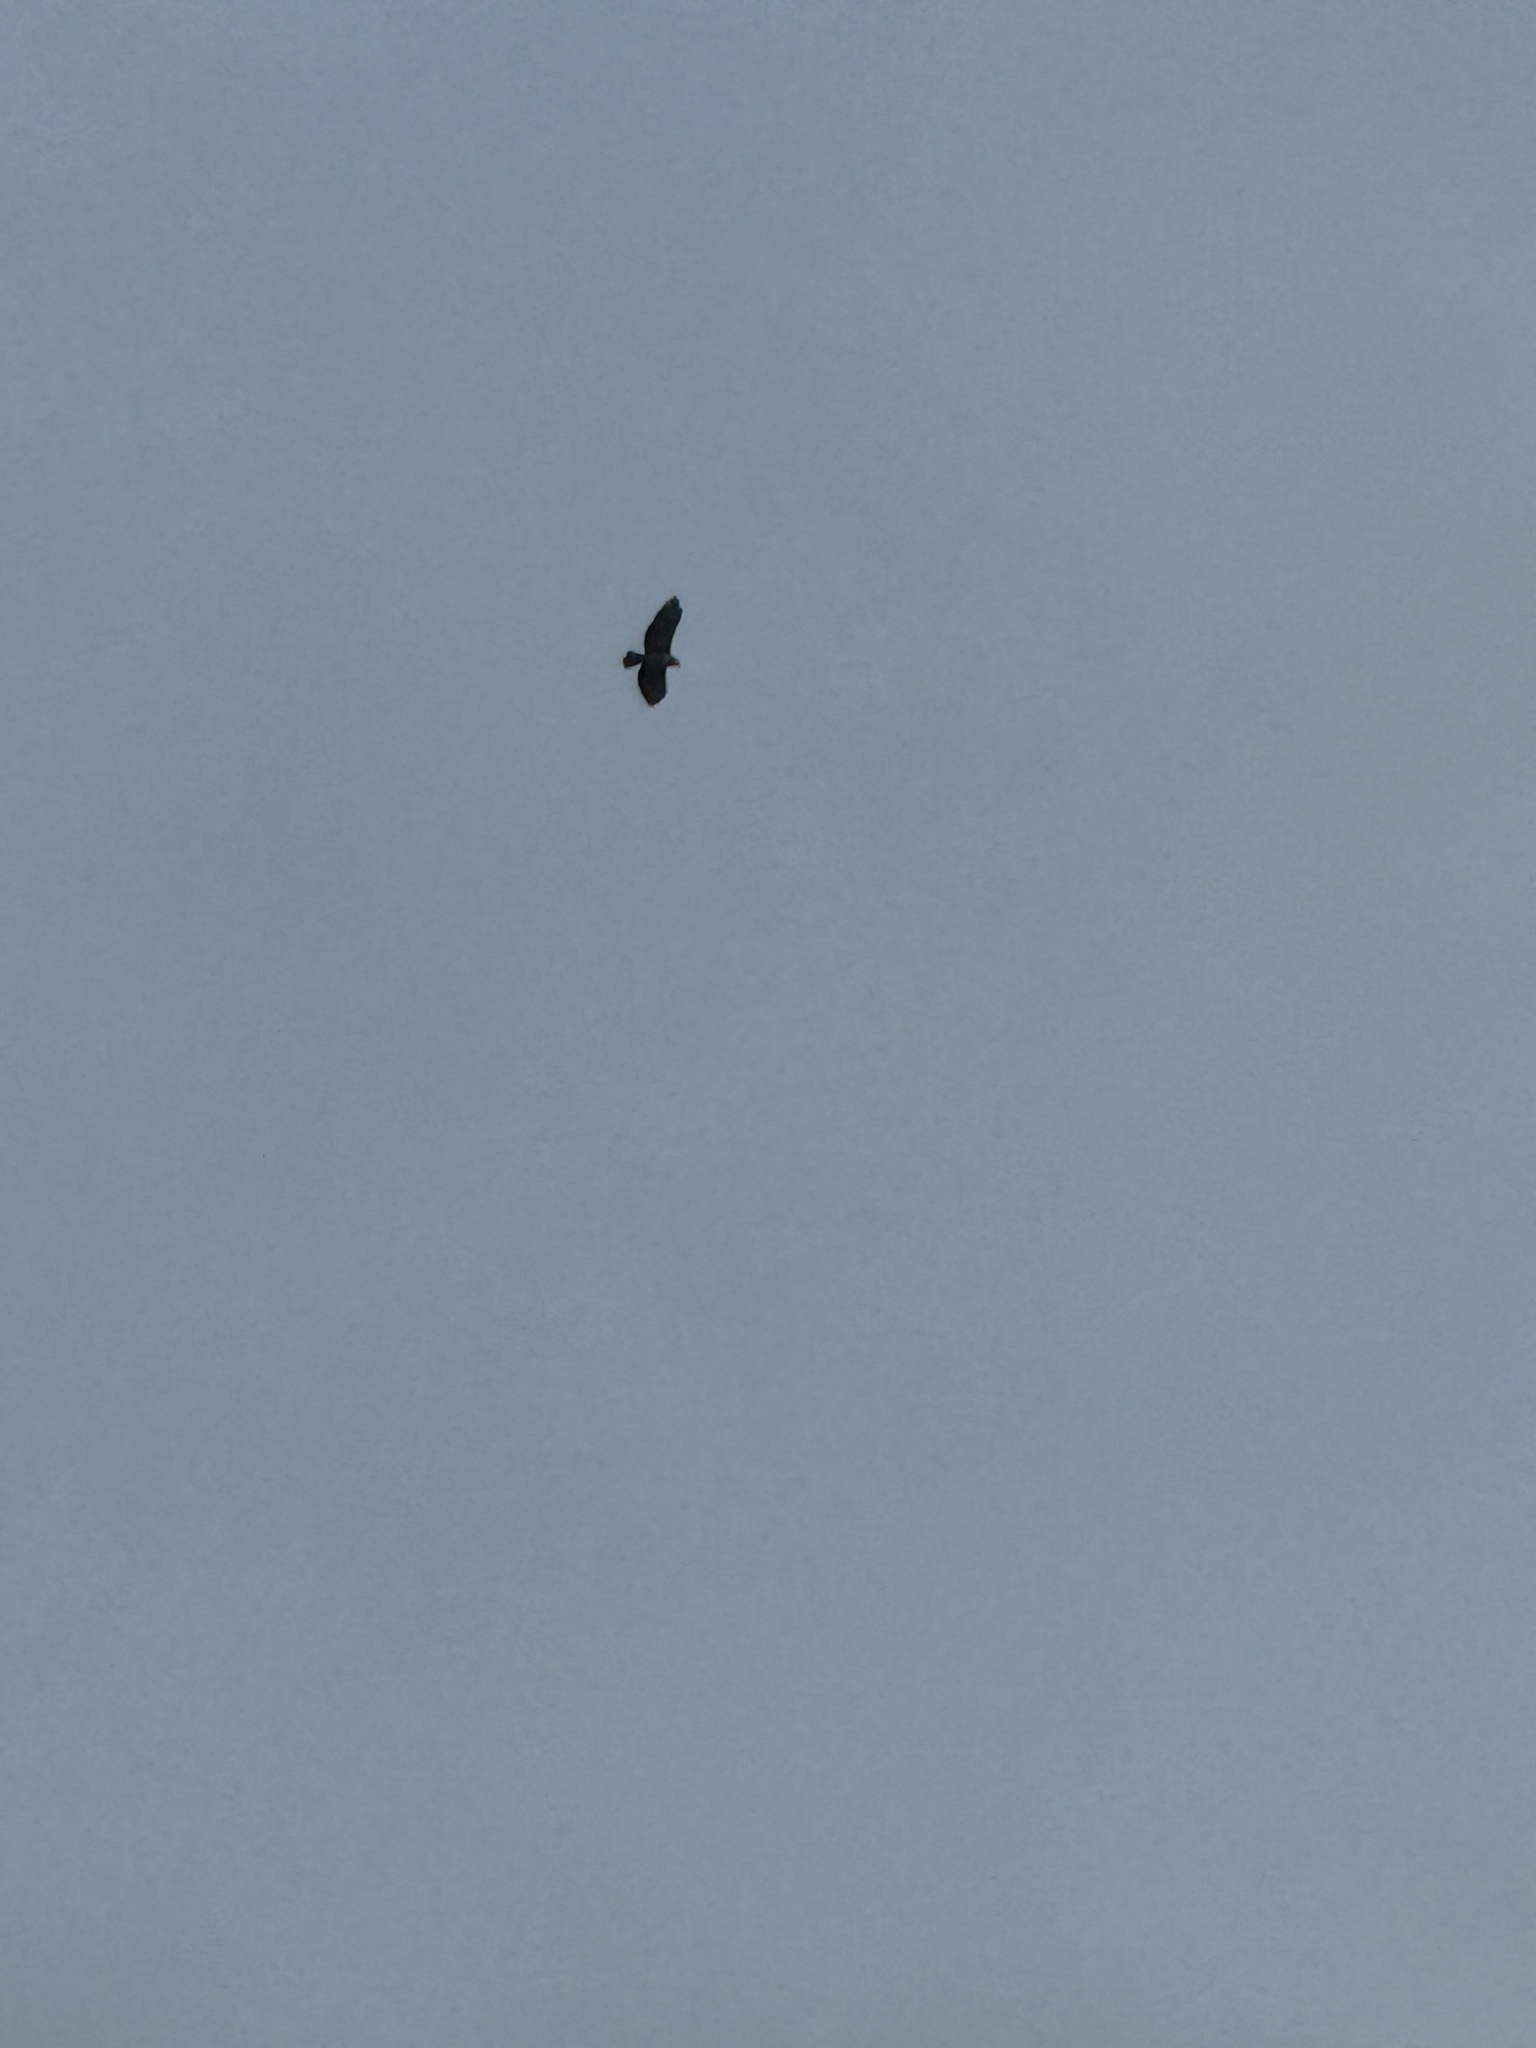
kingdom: Animalia
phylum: Chordata
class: Aves
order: Accipitriformes
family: Accipitridae
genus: Buteo
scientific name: Buteo jamaicensis
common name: Red-tailed hawk
